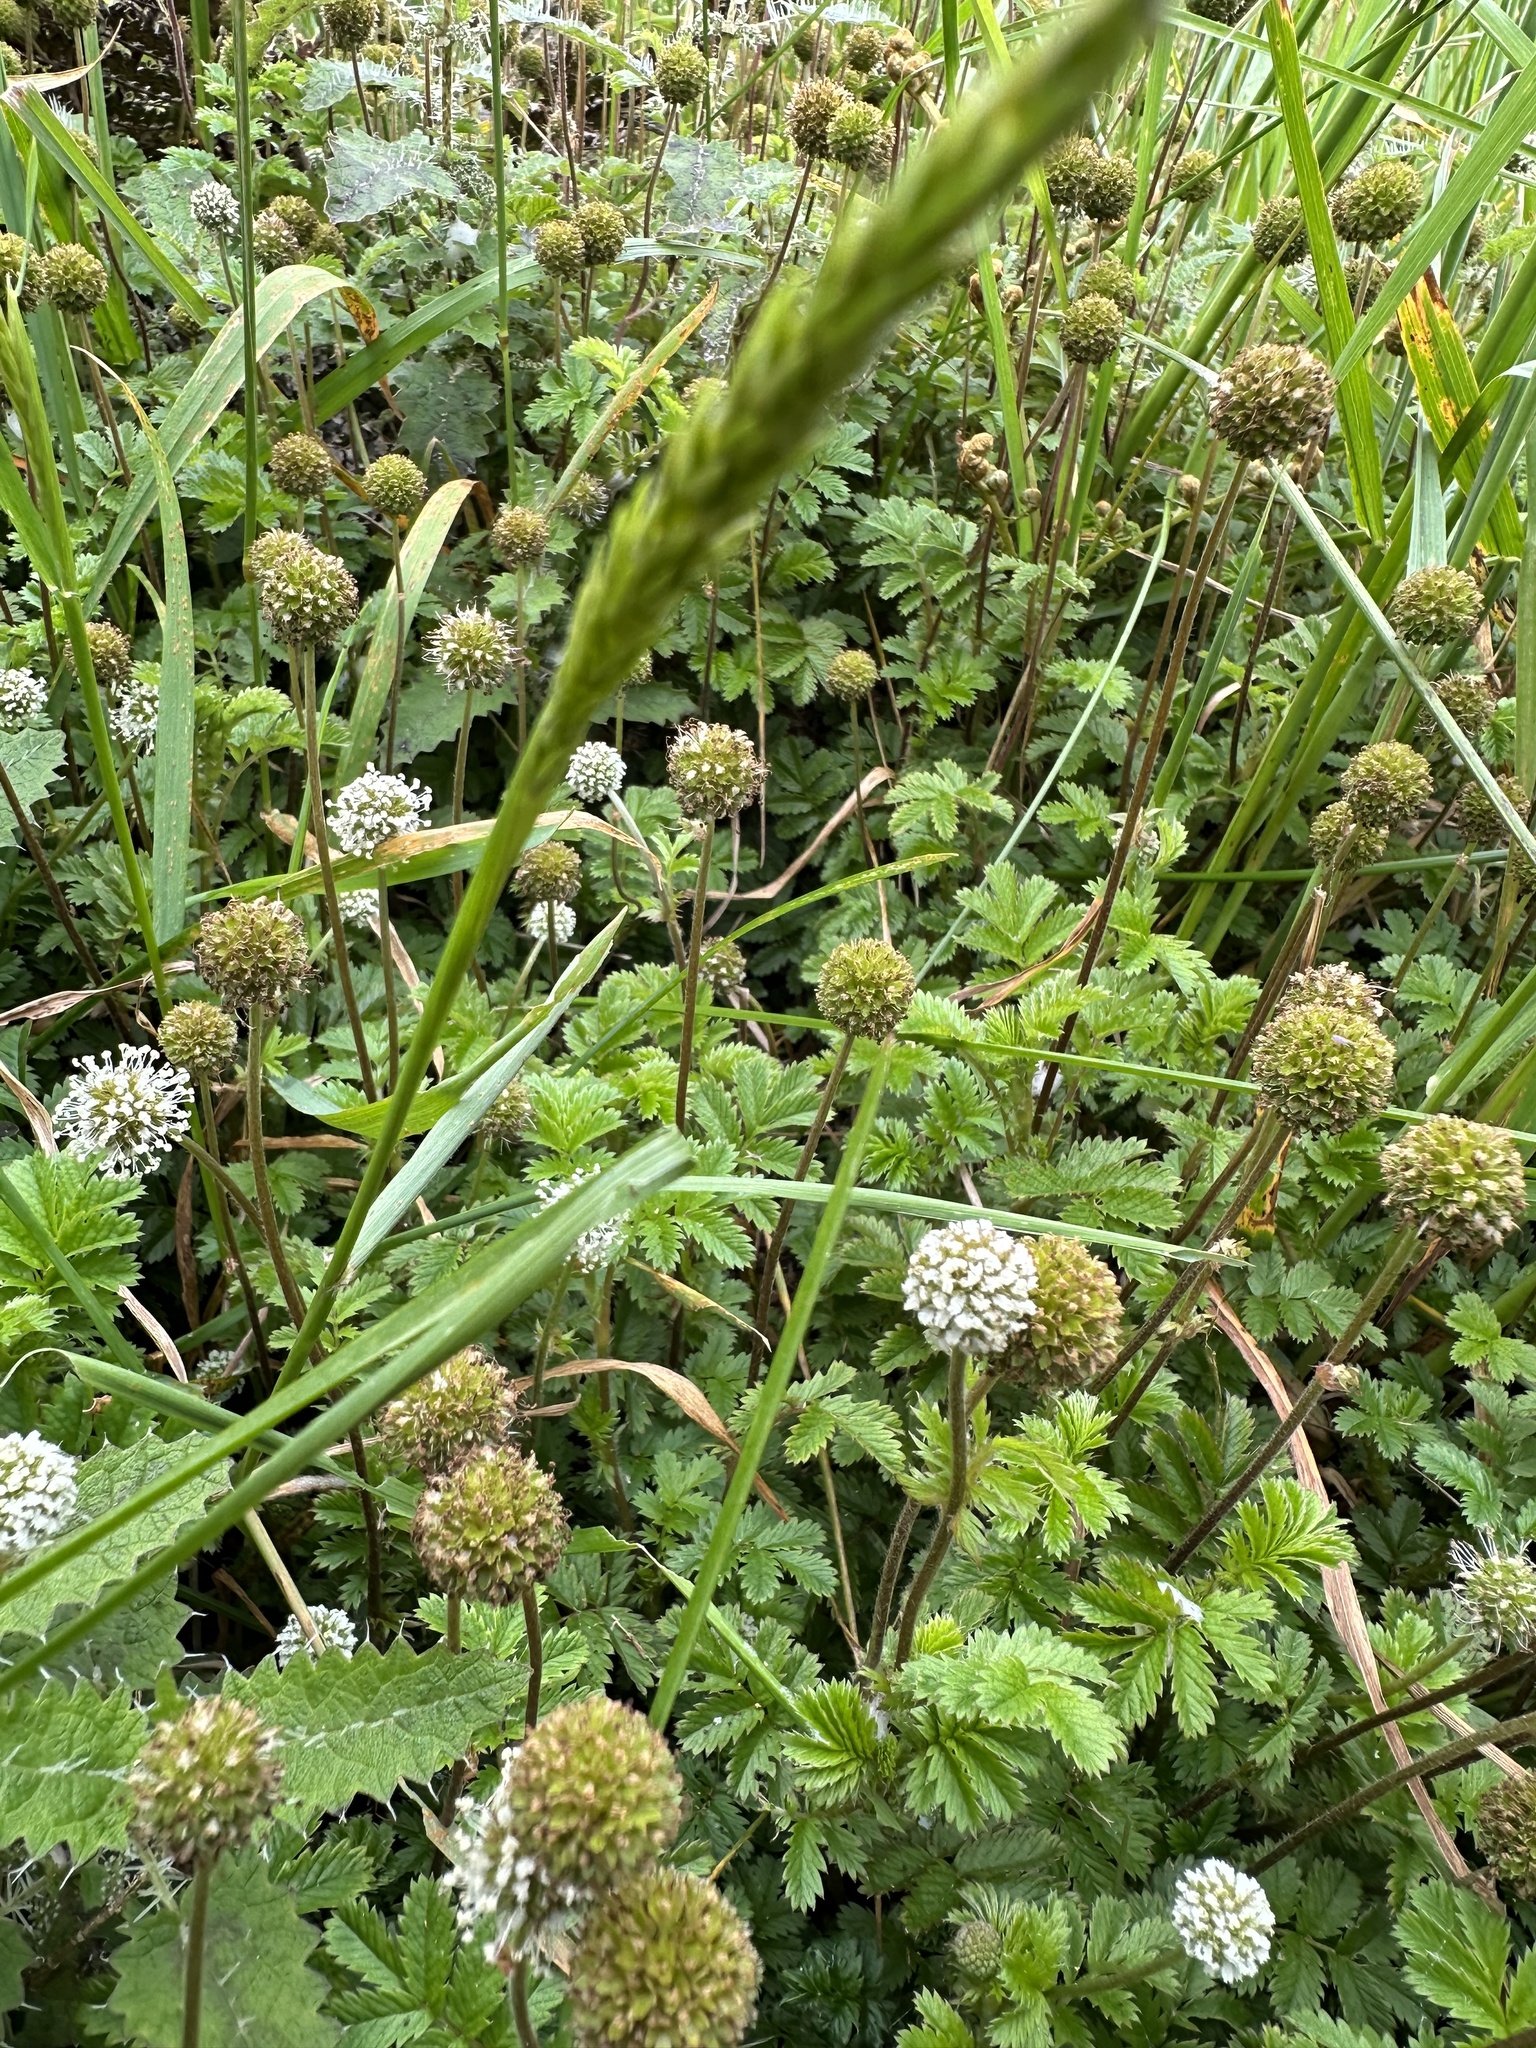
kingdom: Plantae
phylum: Tracheophyta
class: Magnoliopsida
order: Rosales
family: Rosaceae
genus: Acaena
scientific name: Acaena anserinifolia
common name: Bronze pirri-pirri-bur
